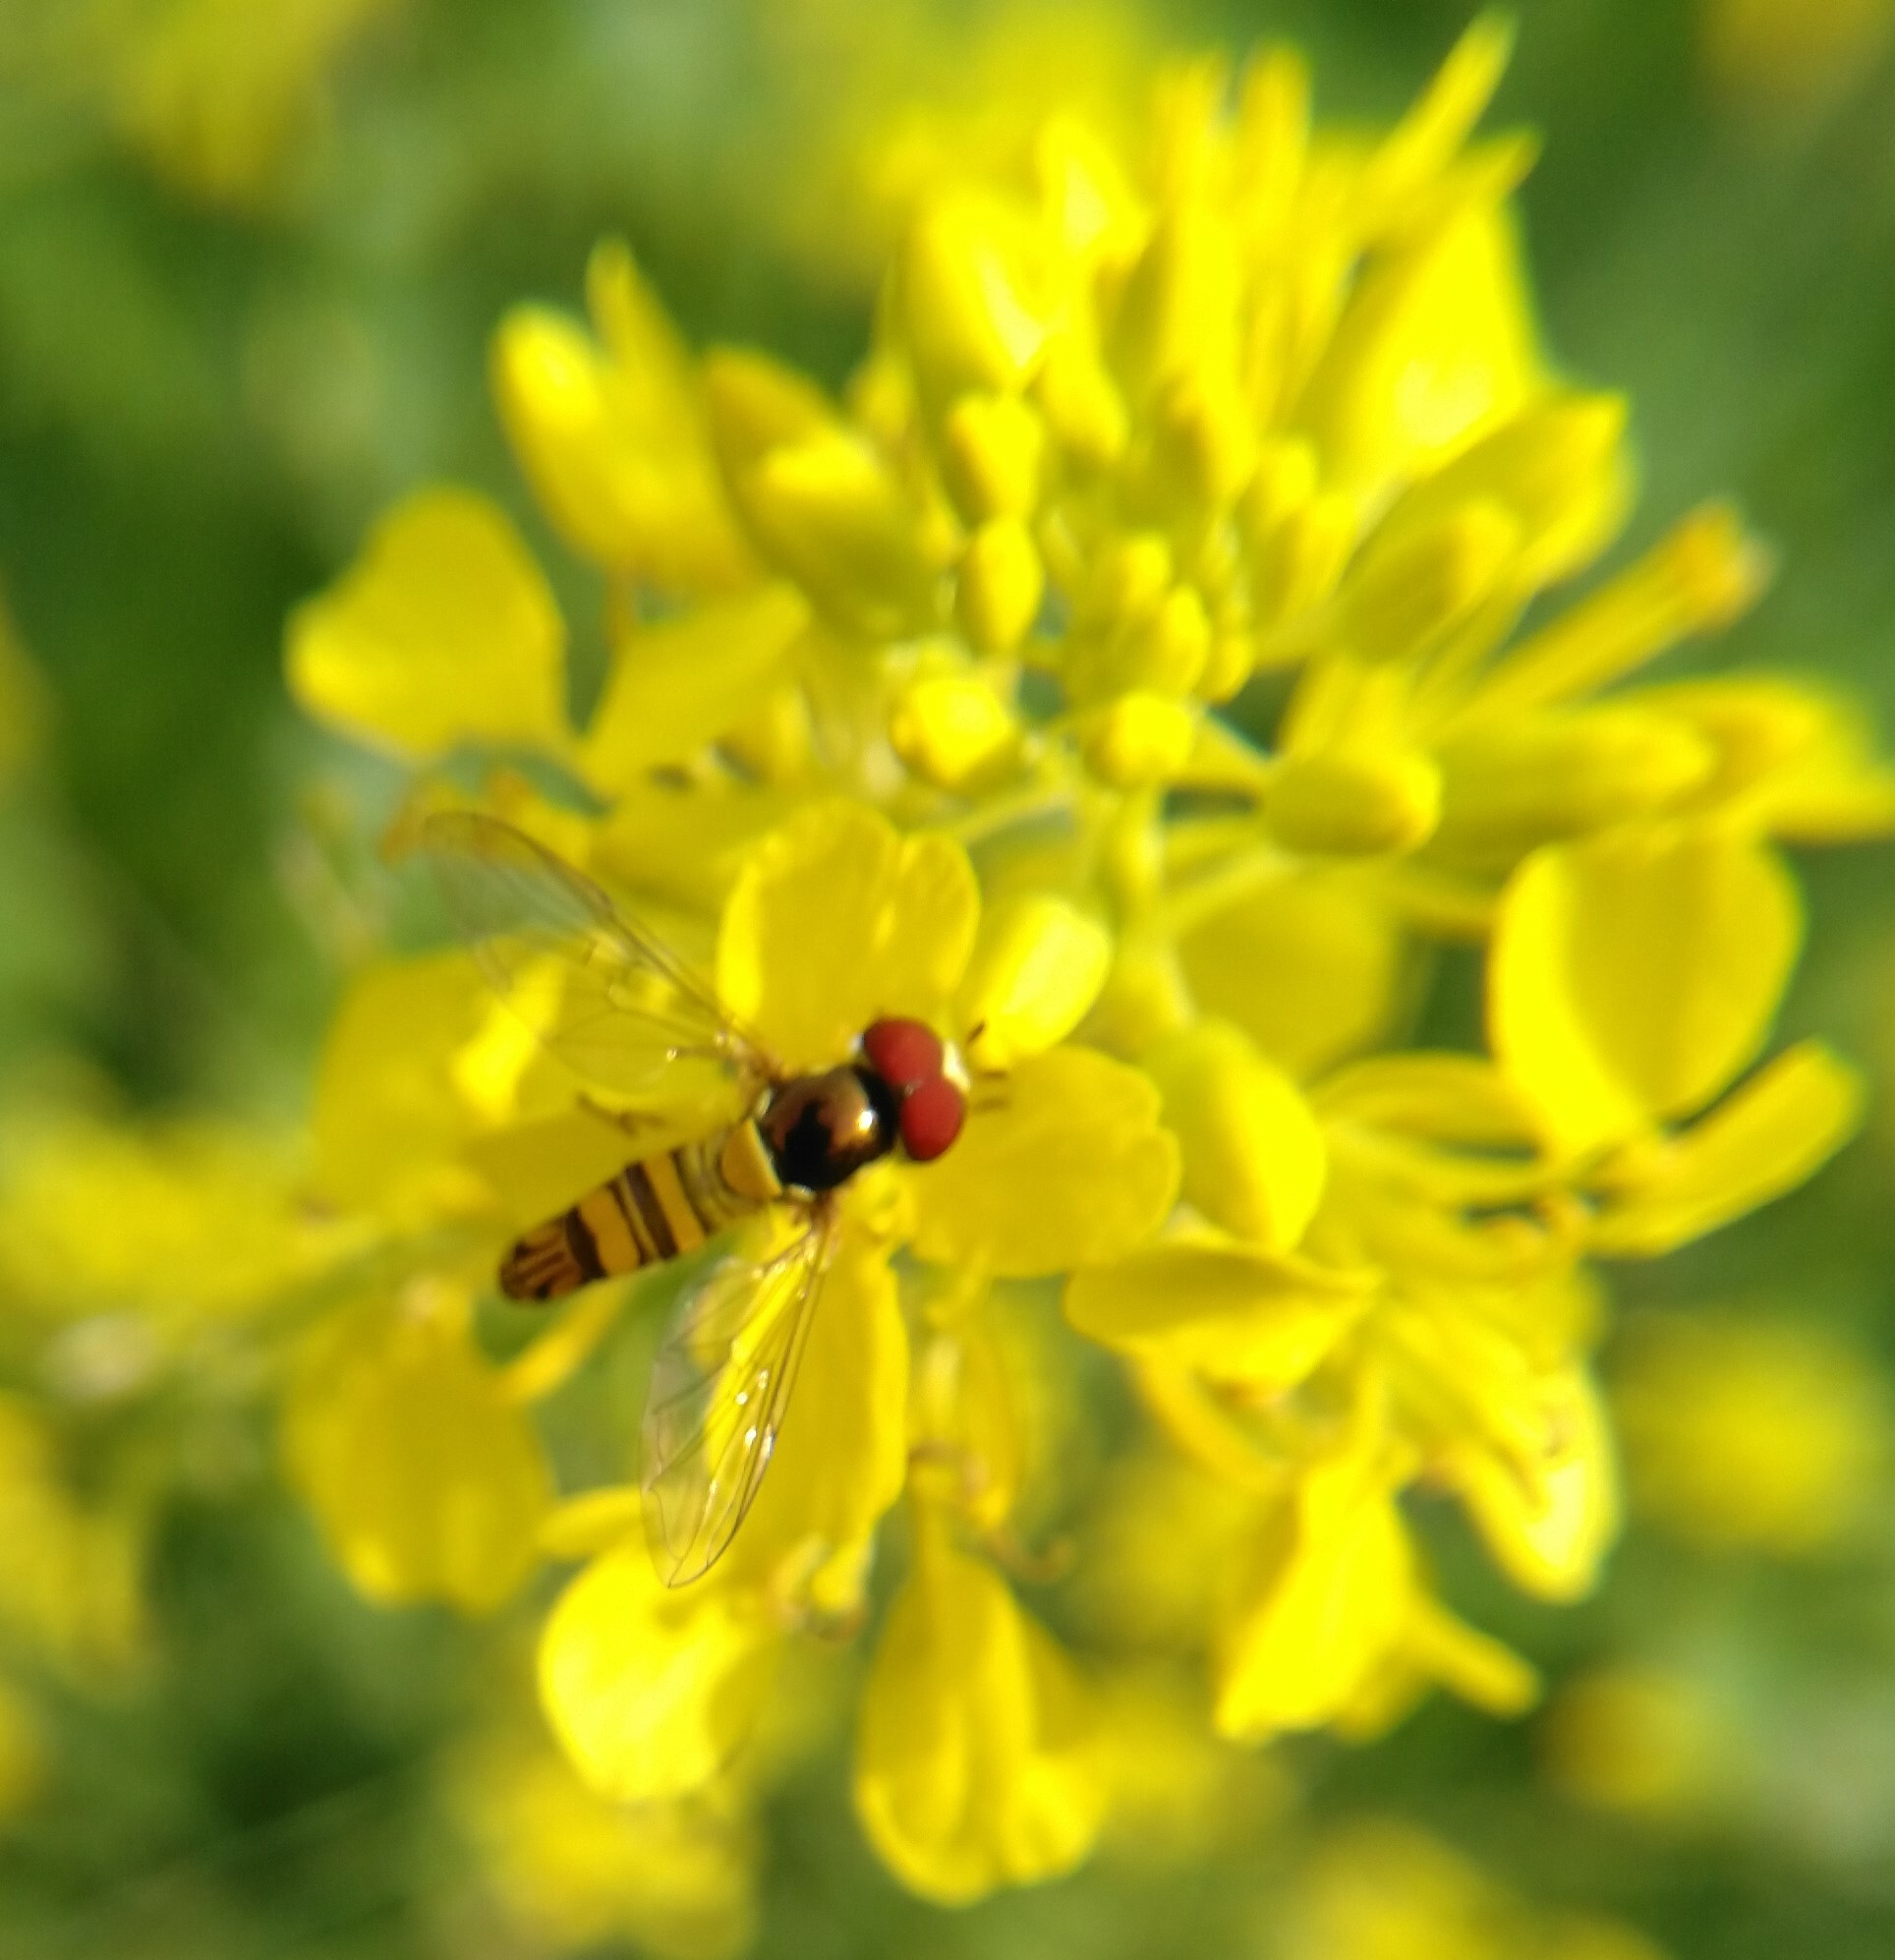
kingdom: Animalia
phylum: Arthropoda
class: Insecta
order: Diptera
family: Syrphidae
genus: Allograpta
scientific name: Allograpta obliqua
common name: Common oblique syrphid
